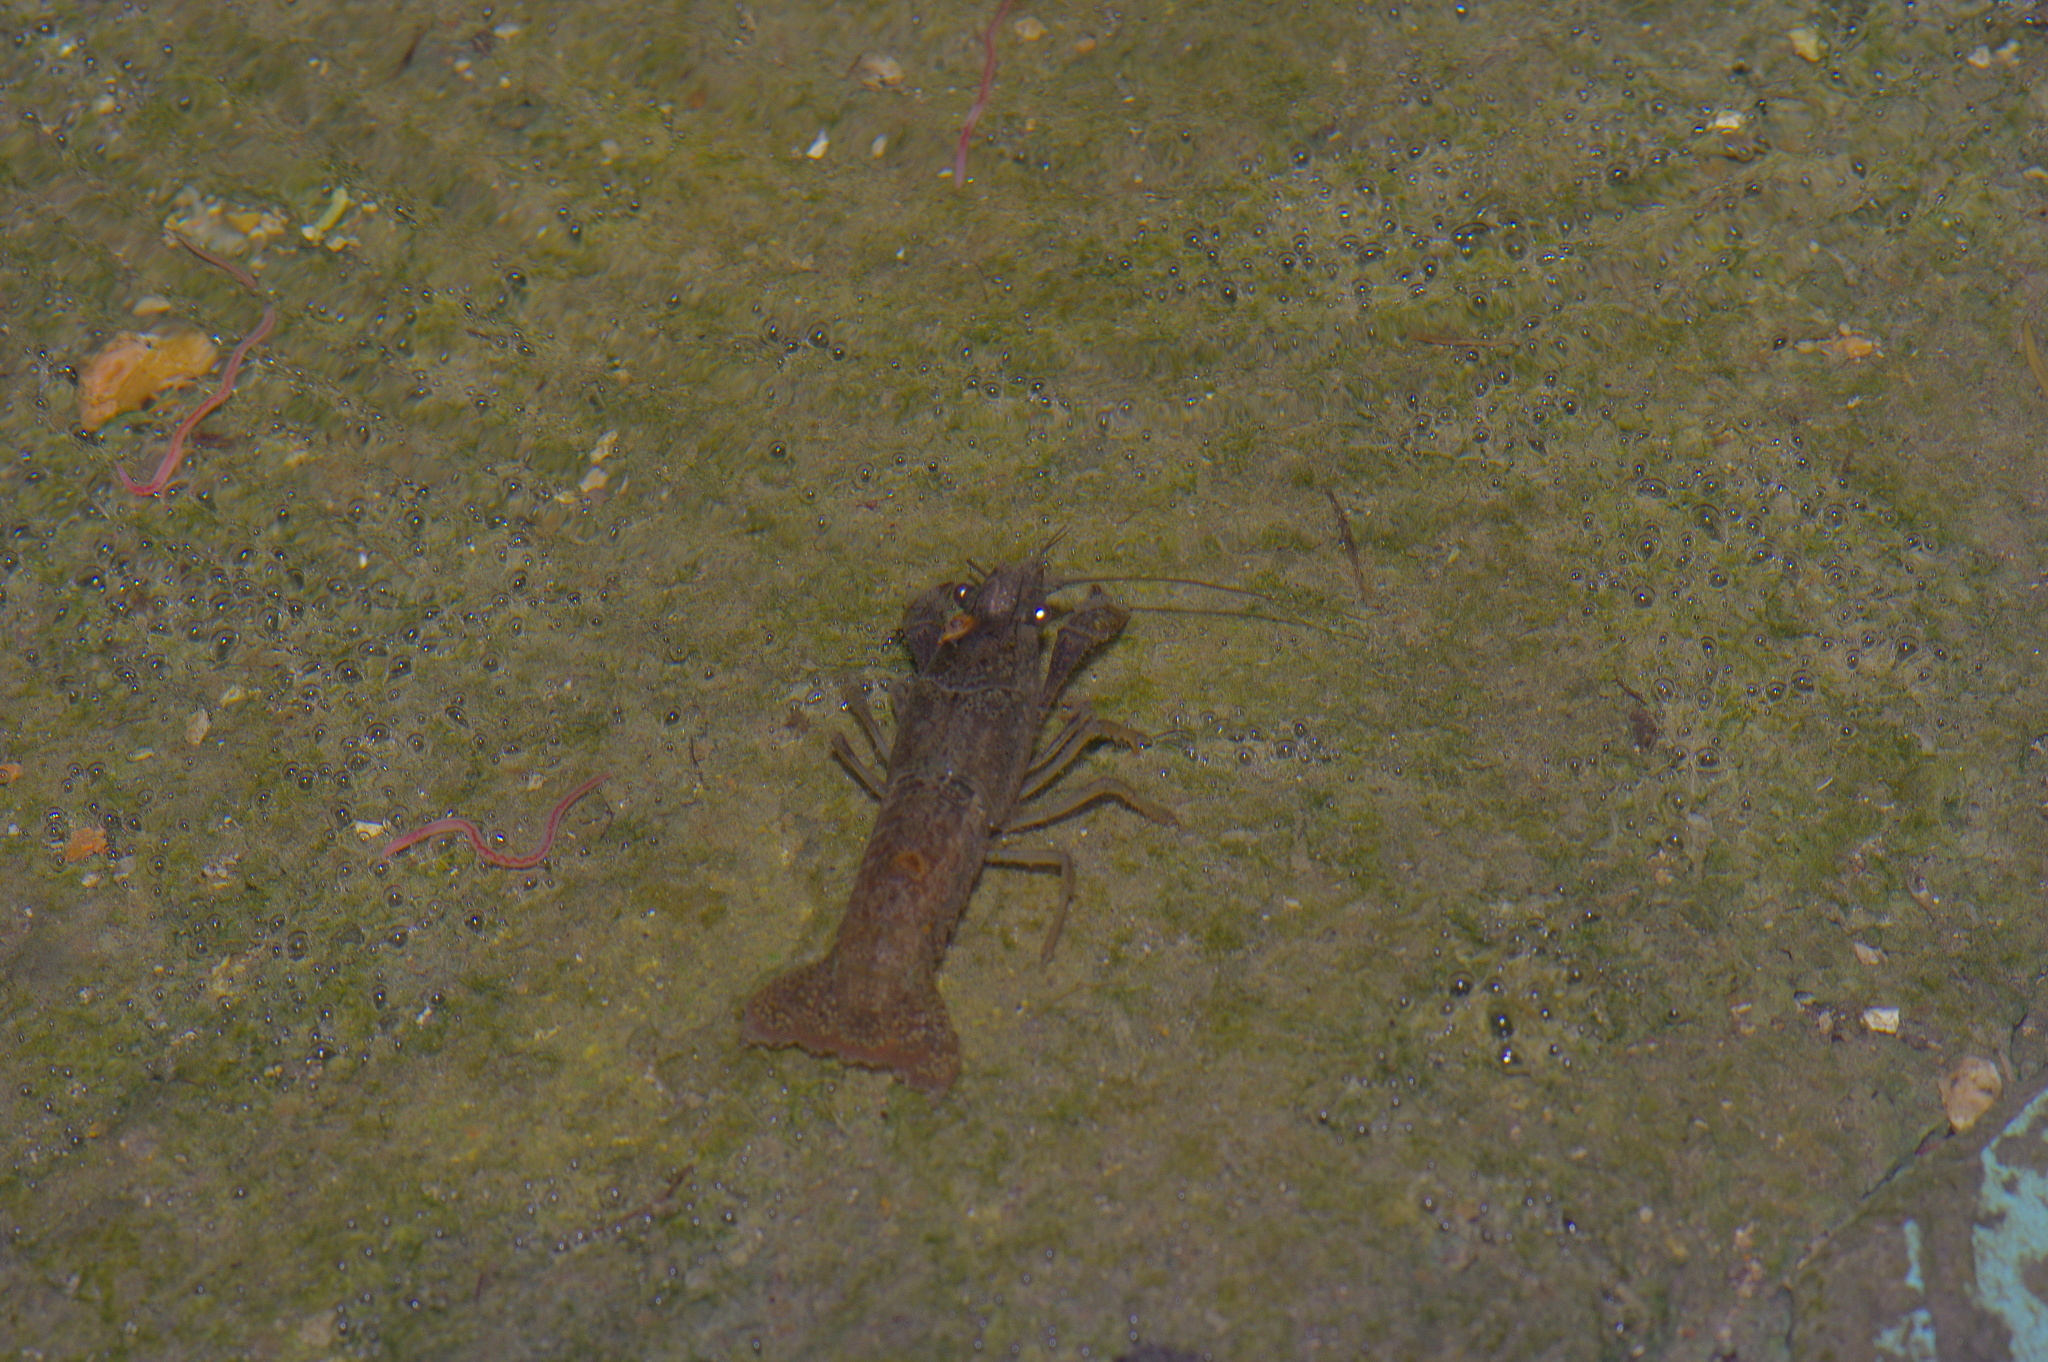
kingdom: Animalia
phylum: Arthropoda
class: Malacostraca
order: Decapoda
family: Cambaridae
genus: Procambarus
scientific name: Procambarus clarkii
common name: Red swamp crayfish
